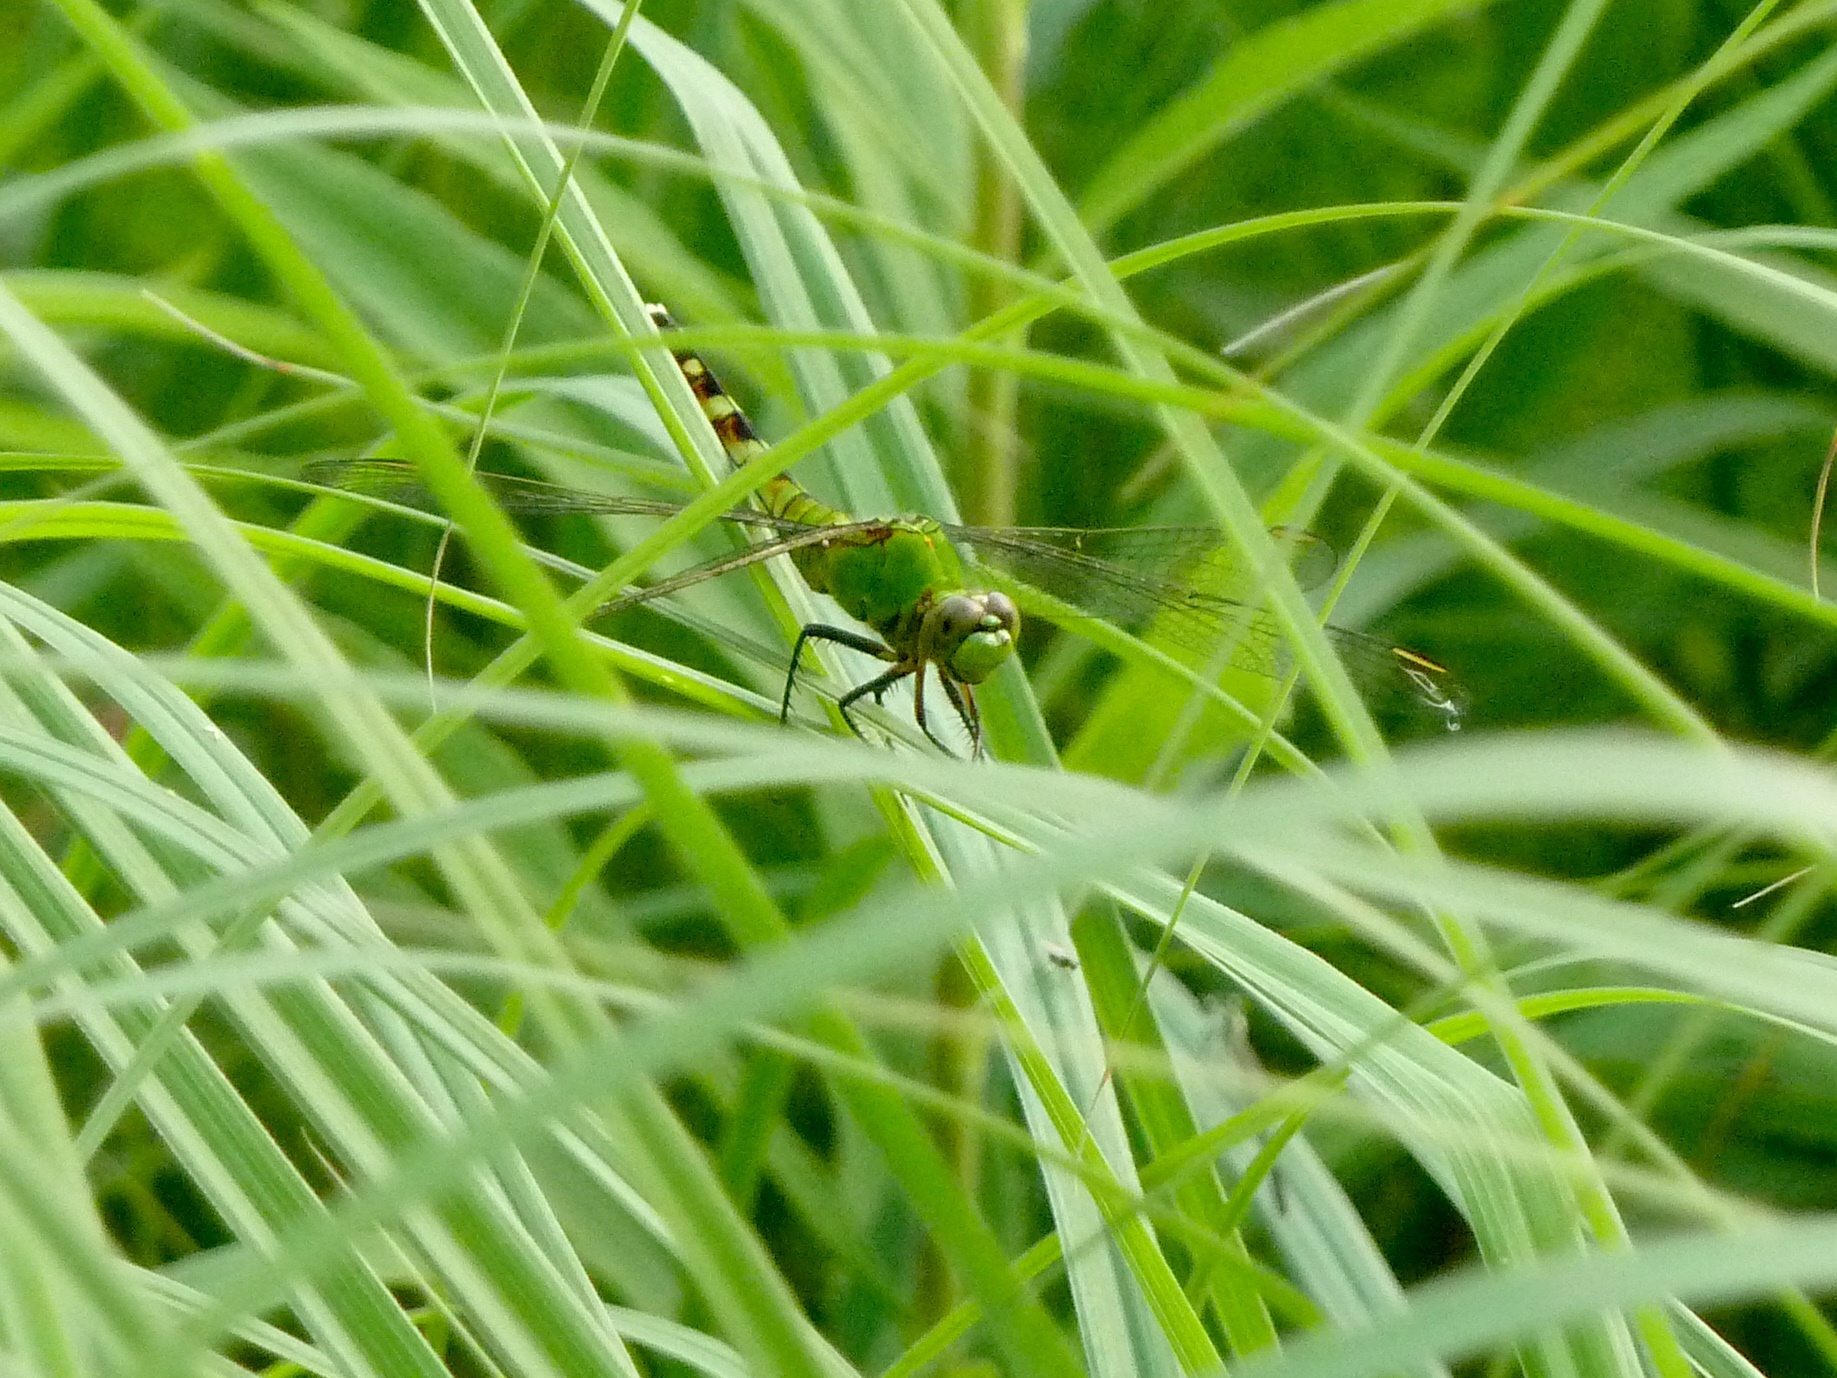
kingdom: Animalia
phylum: Arthropoda
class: Insecta
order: Odonata
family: Libellulidae
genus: Erythemis
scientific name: Erythemis simplicicollis
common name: Eastern pondhawk
